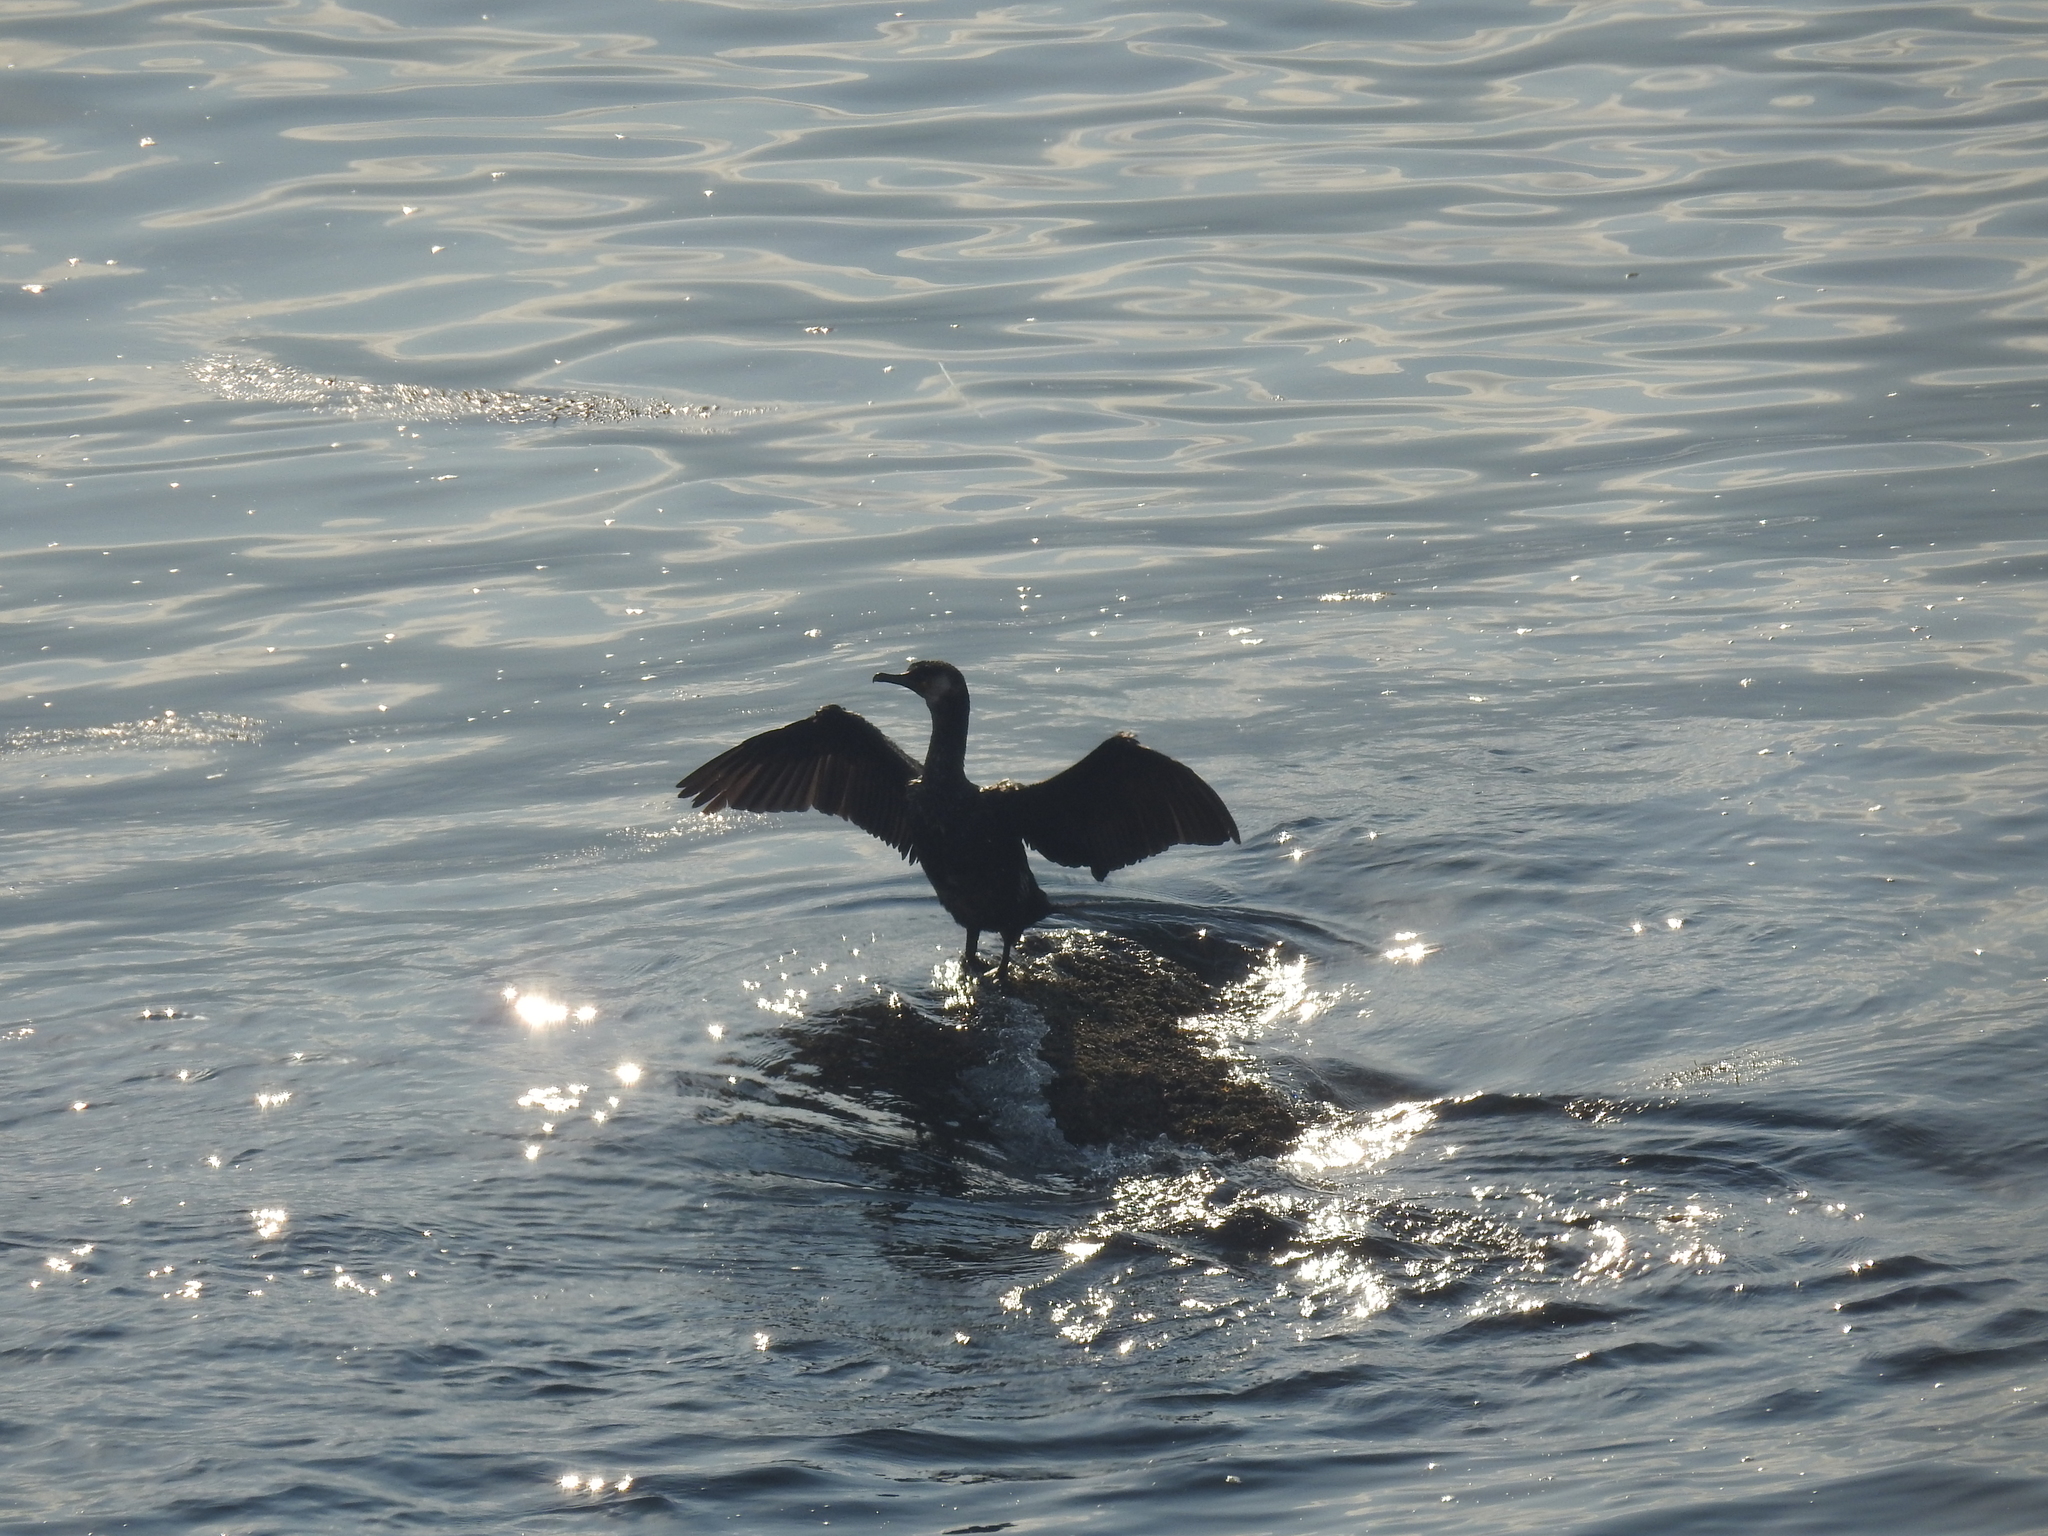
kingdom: Animalia
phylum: Chordata
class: Aves
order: Suliformes
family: Phalacrocoracidae
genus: Phalacrocorax
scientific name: Phalacrocorax capillatus
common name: Japanese cormorant
